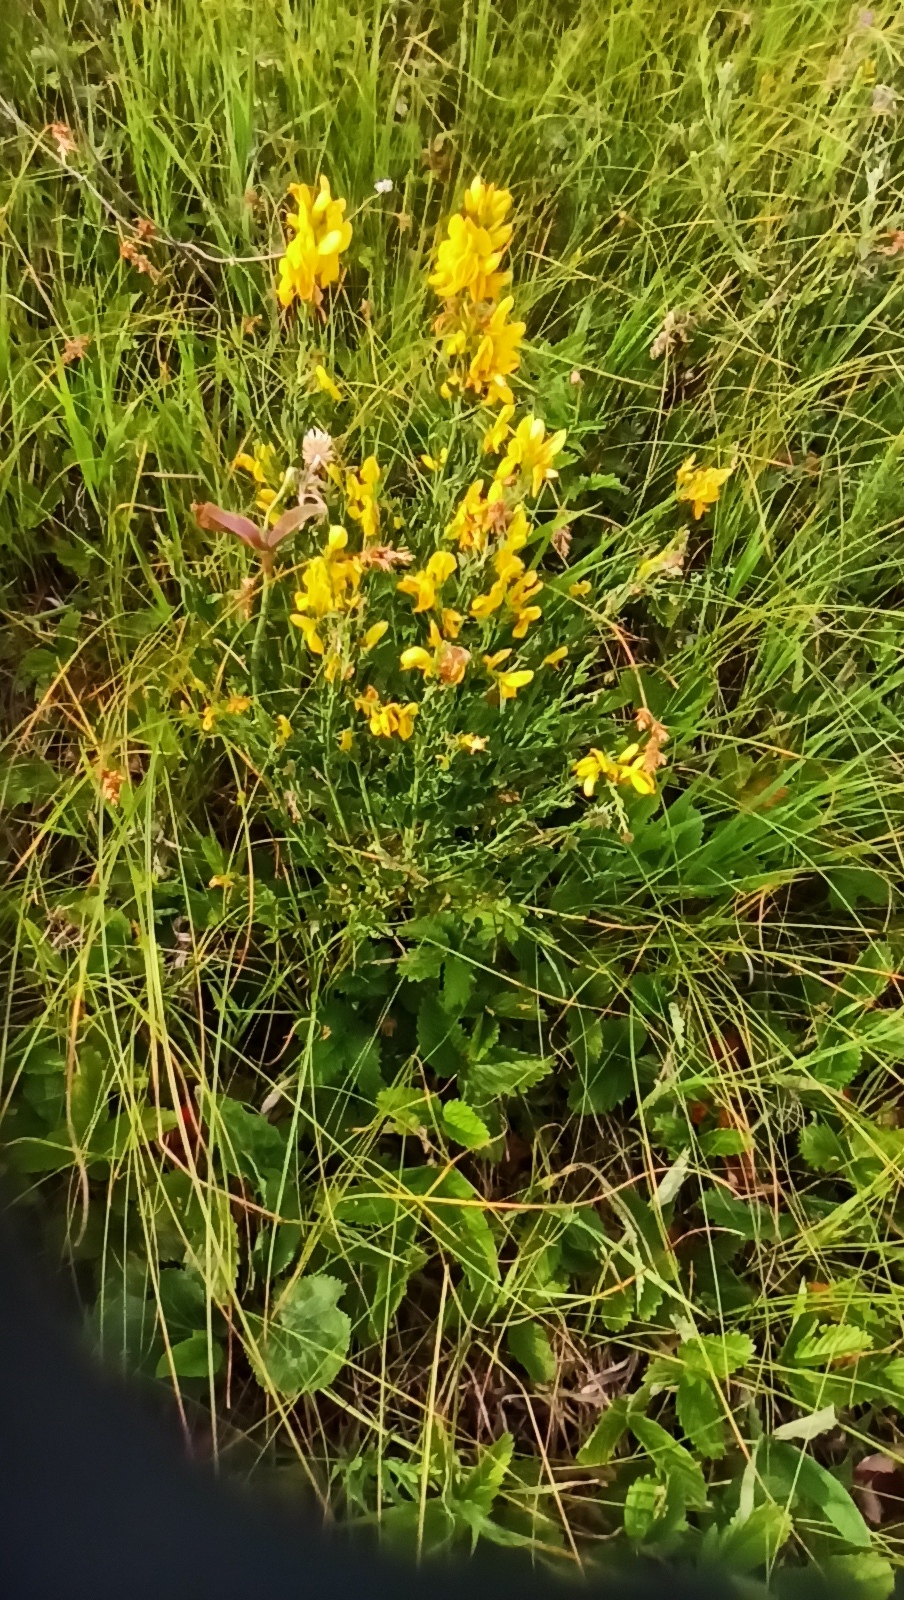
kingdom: Plantae
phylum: Tracheophyta
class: Magnoliopsida
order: Fabales
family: Fabaceae
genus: Genista
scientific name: Genista tinctoria
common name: Dyer's greenweed
